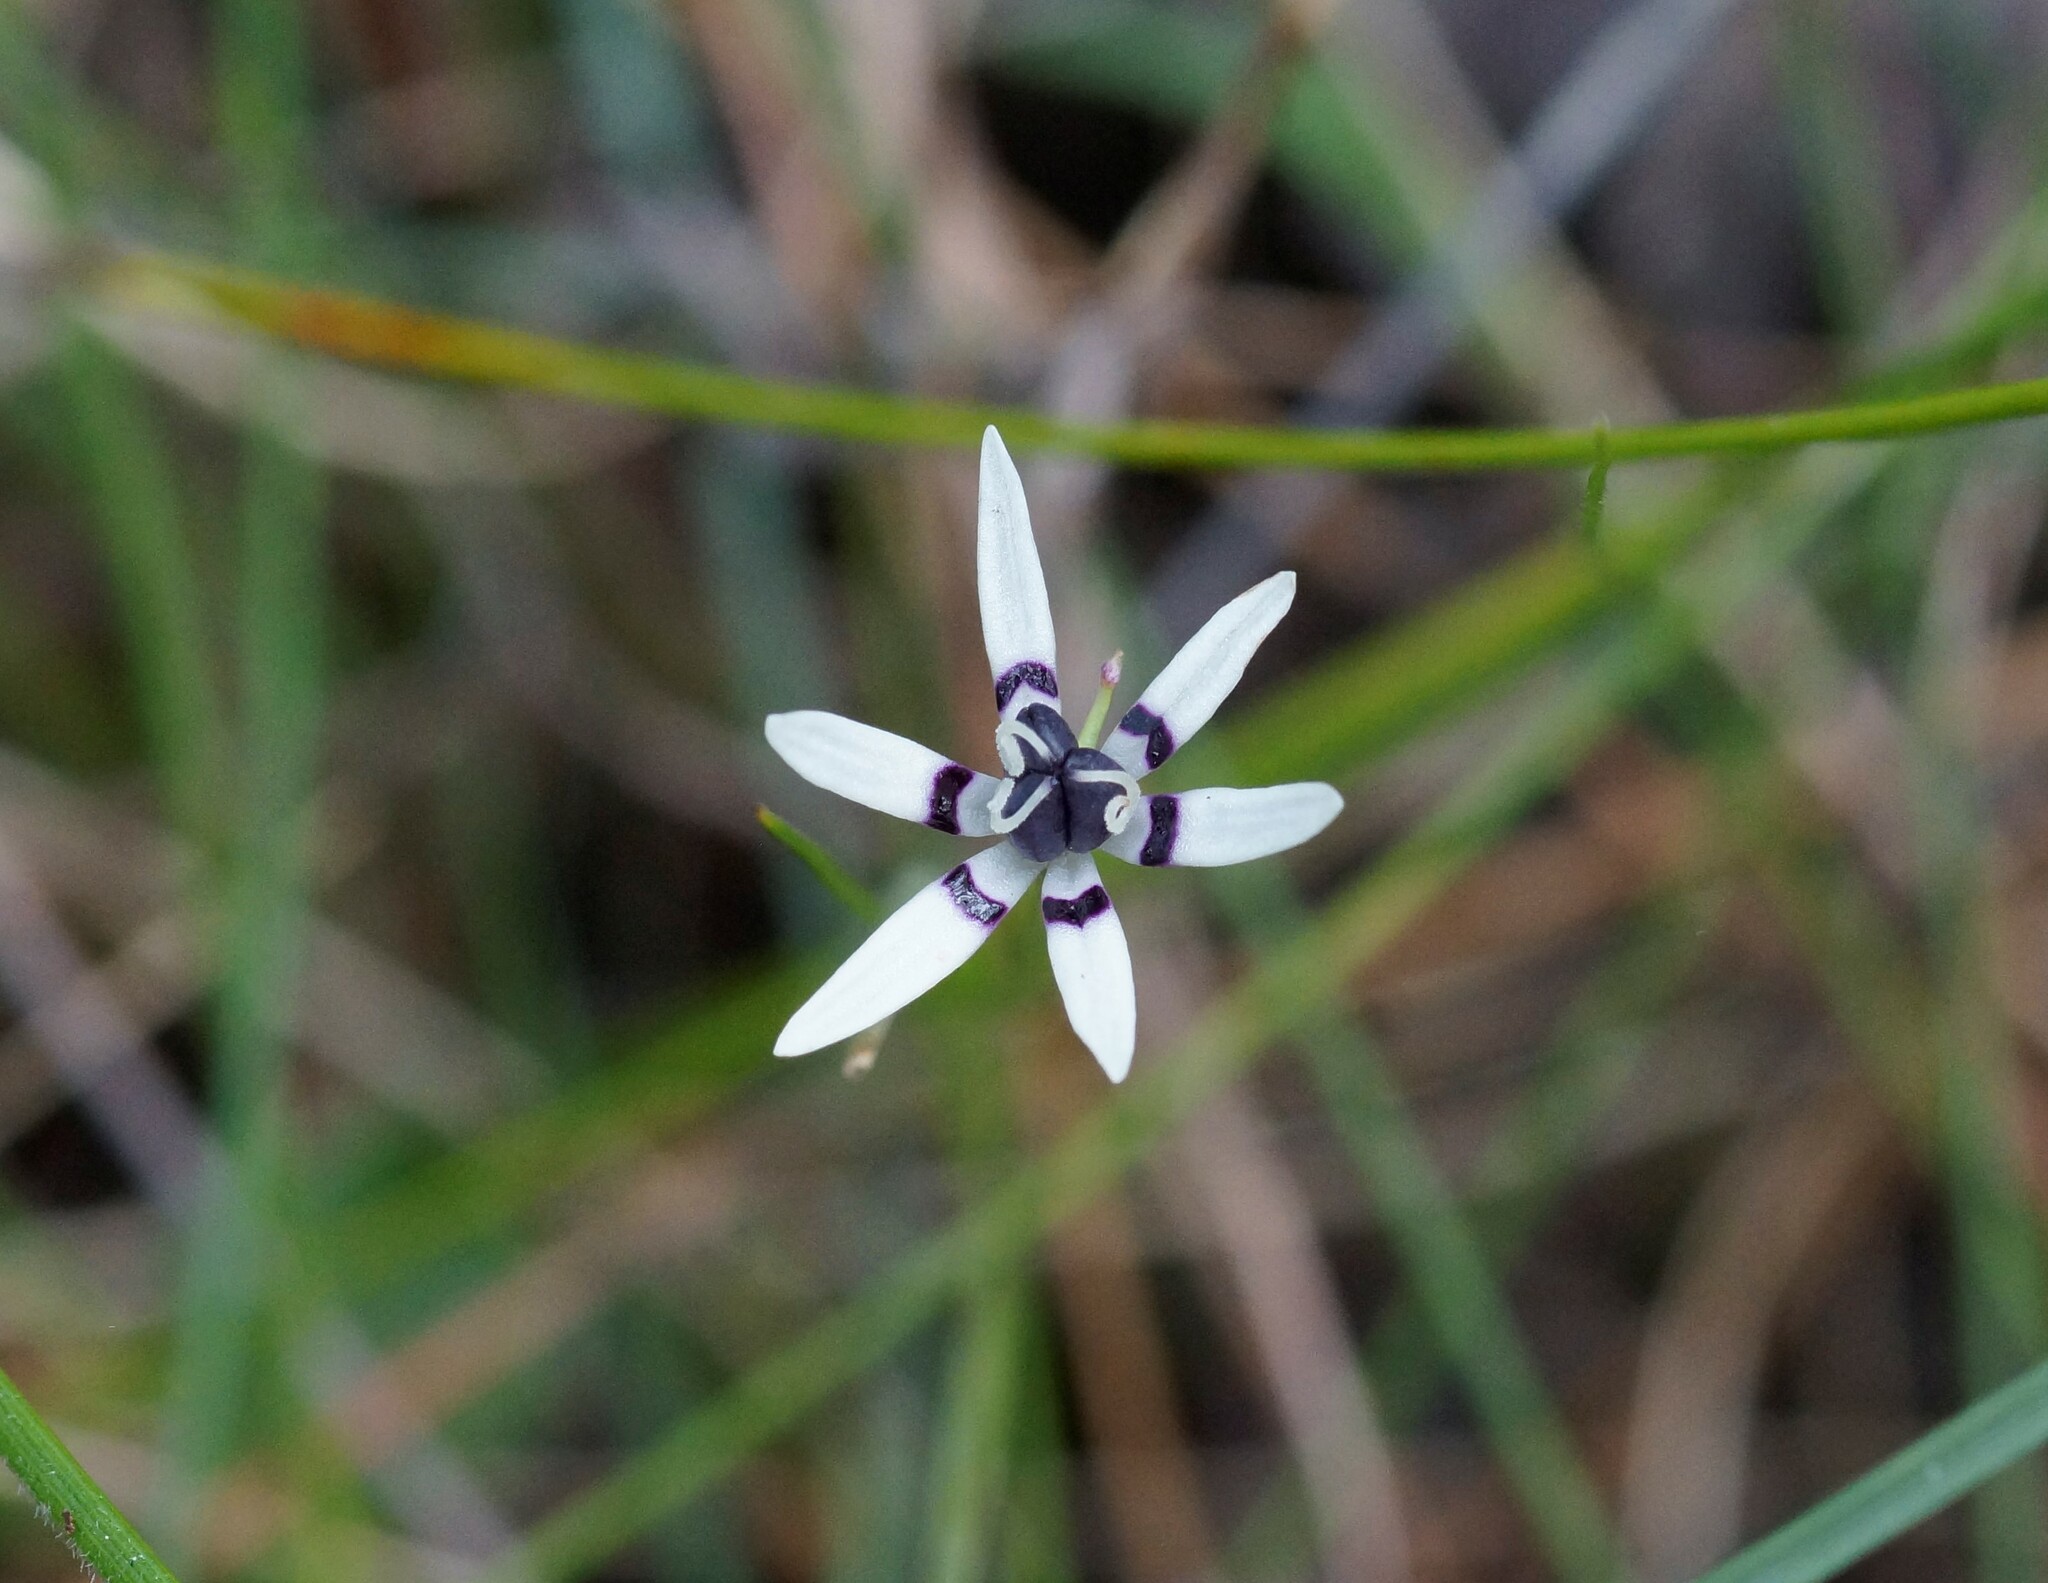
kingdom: Plantae
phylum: Tracheophyta
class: Liliopsida
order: Liliales
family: Colchicaceae
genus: Wurmbea
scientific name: Wurmbea dioica
